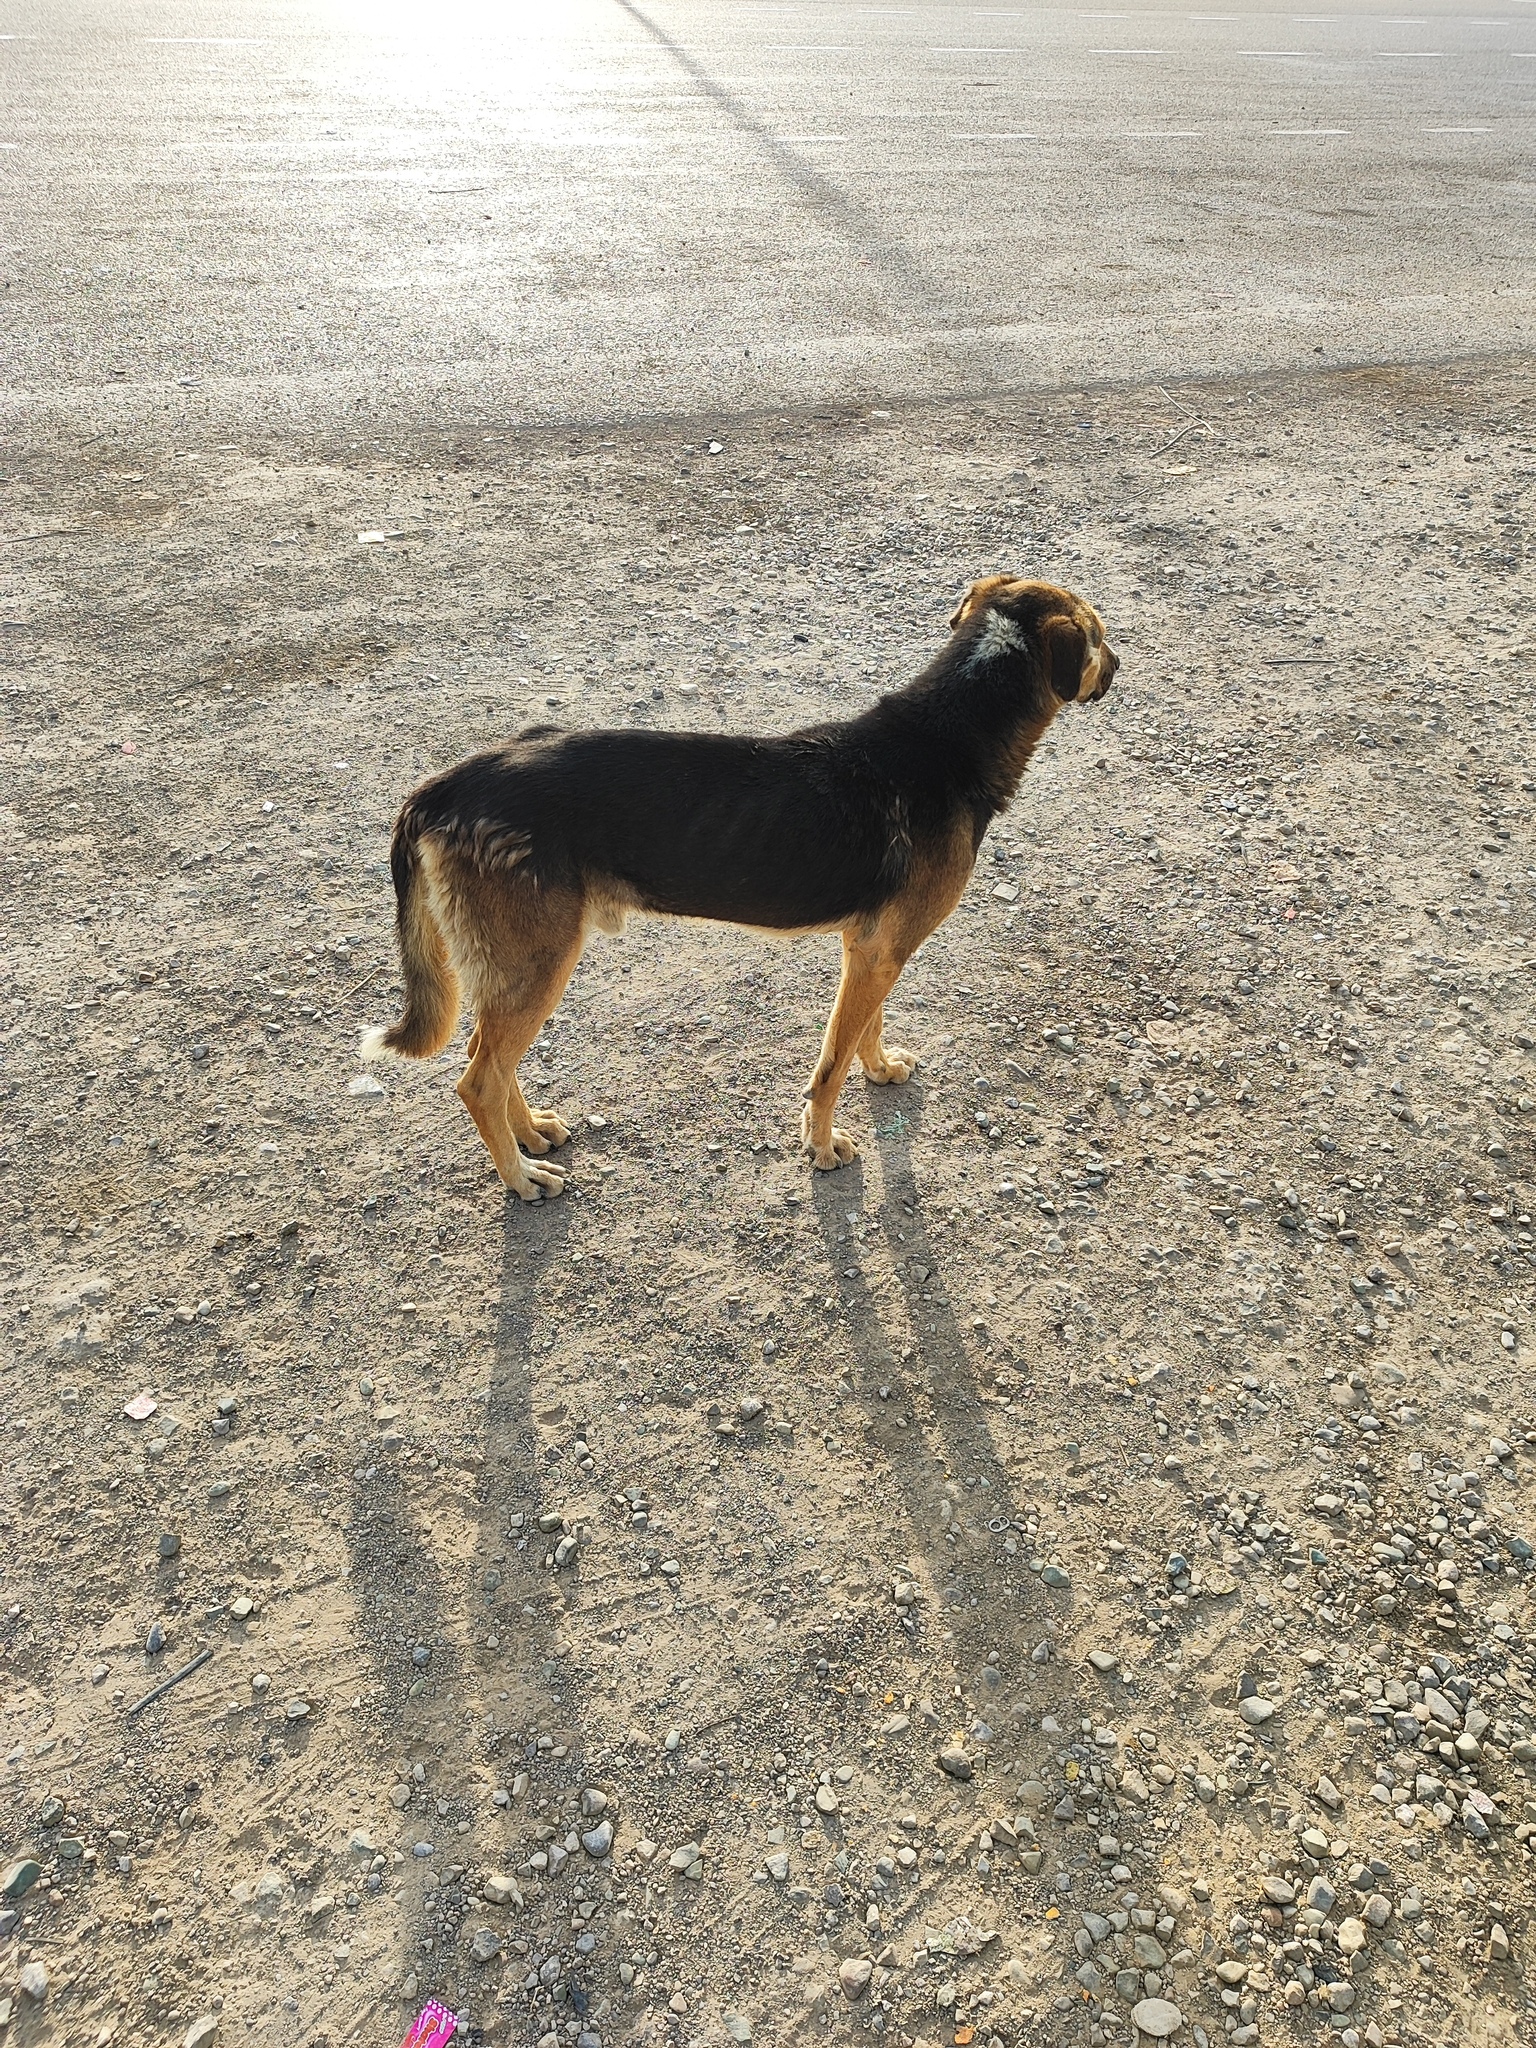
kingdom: Animalia
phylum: Chordata
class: Mammalia
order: Carnivora
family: Canidae
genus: Canis
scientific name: Canis lupus
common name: Gray wolf
